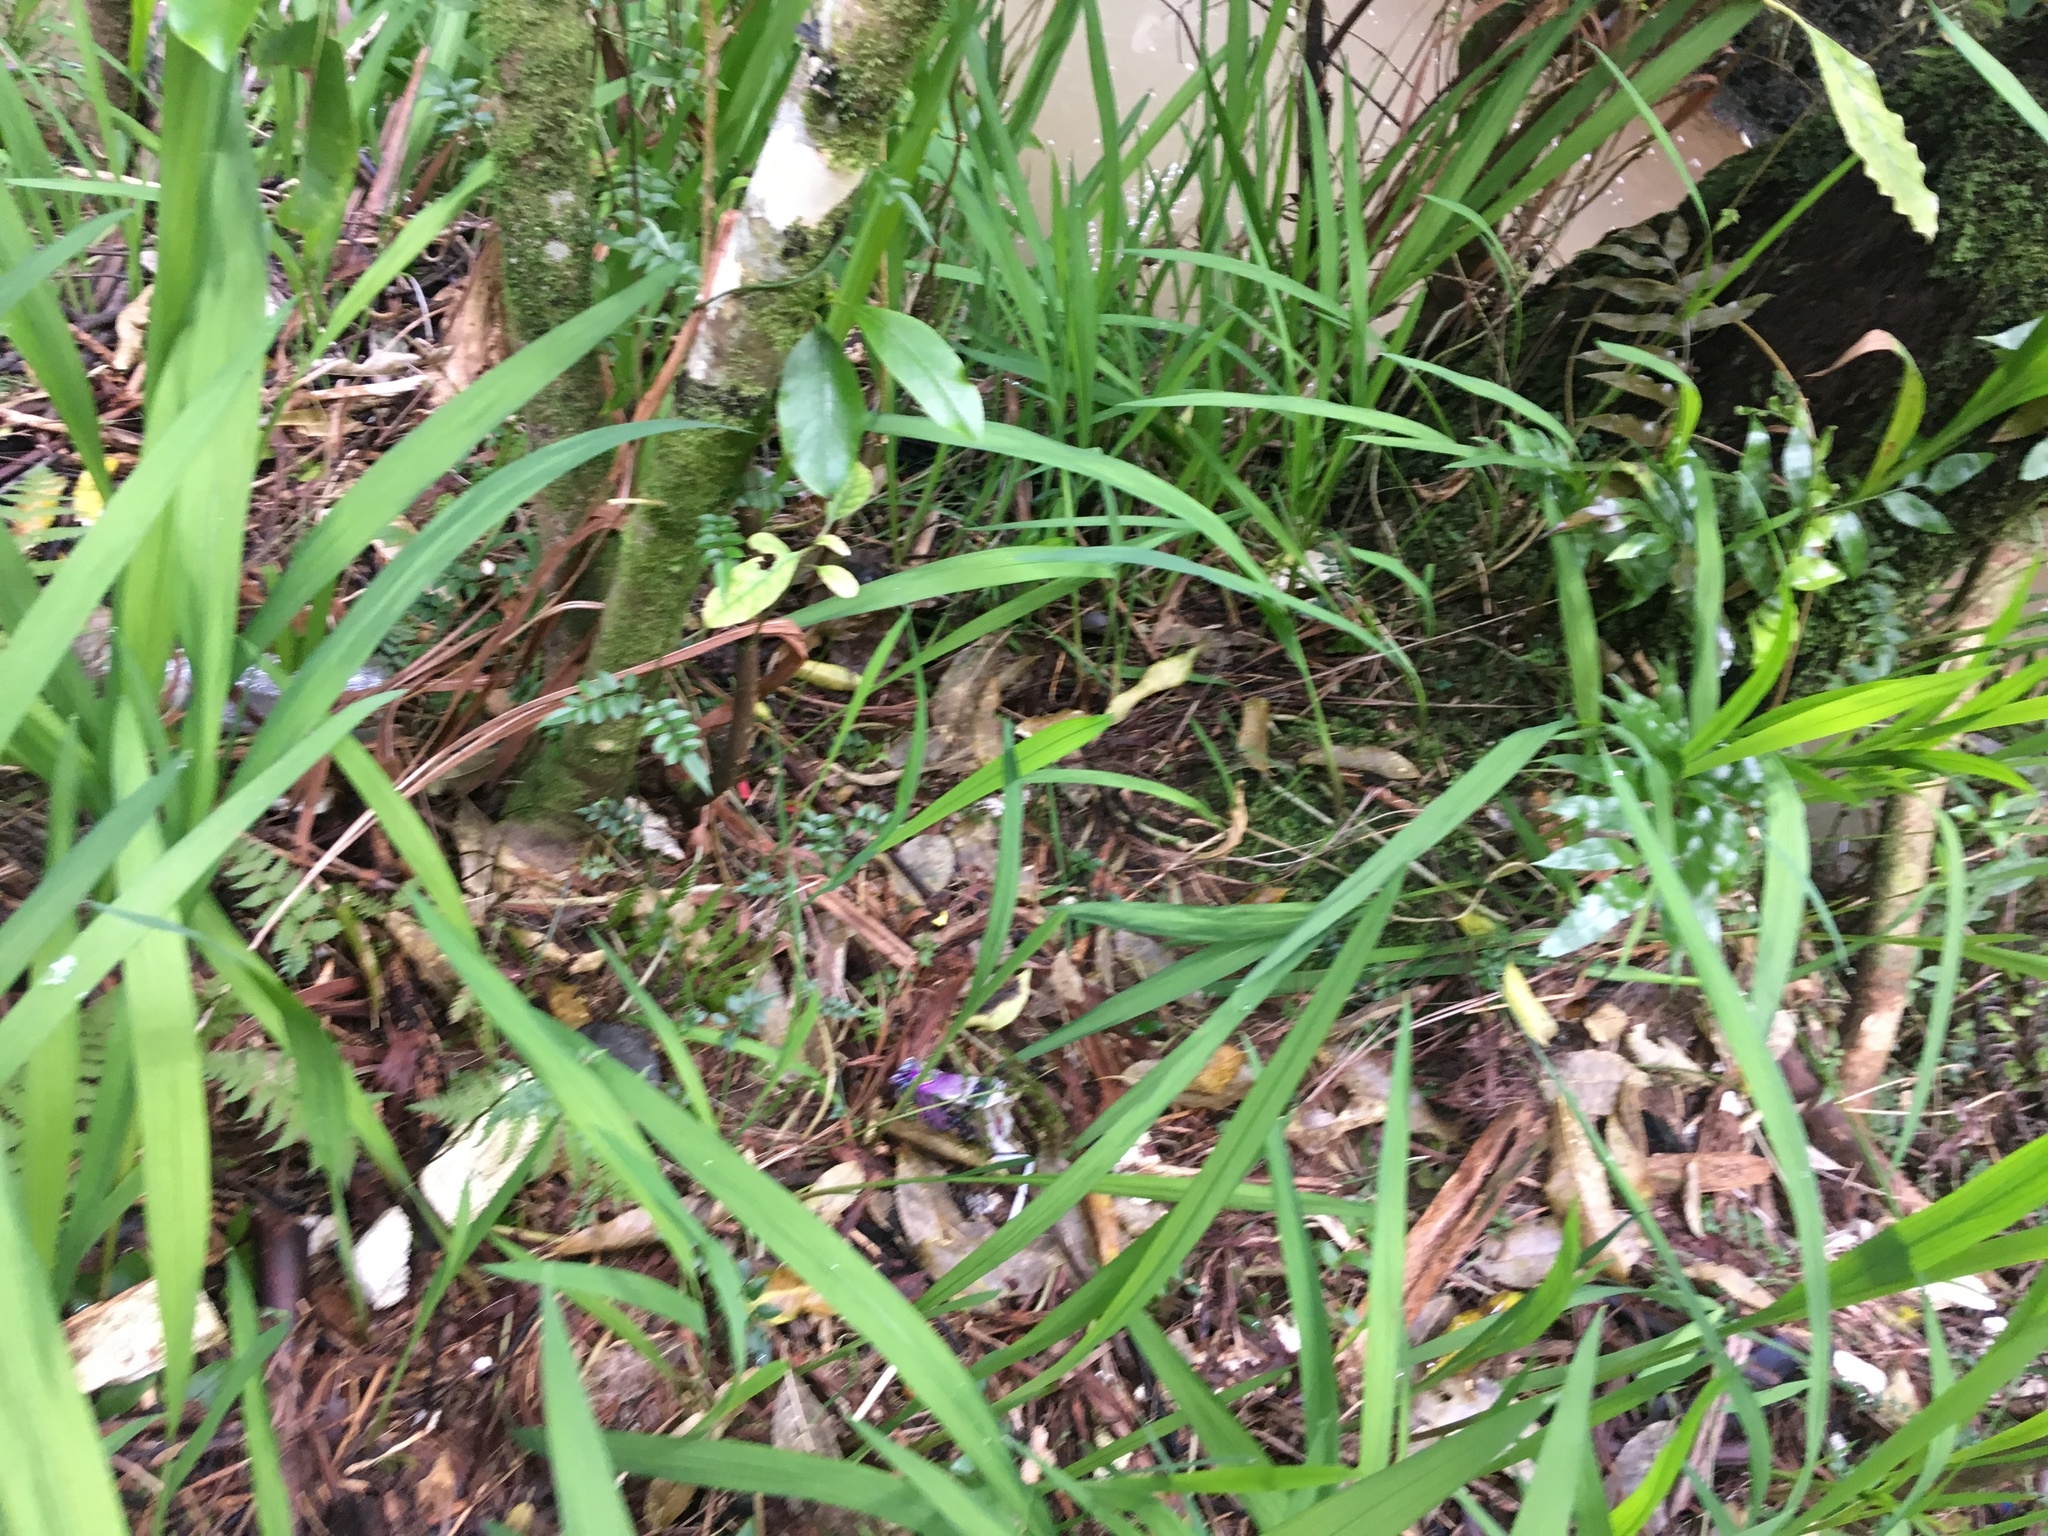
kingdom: Plantae
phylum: Tracheophyta
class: Magnoliopsida
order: Gentianales
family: Rubiaceae
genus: Coprosma
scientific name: Coprosma autumnalis
